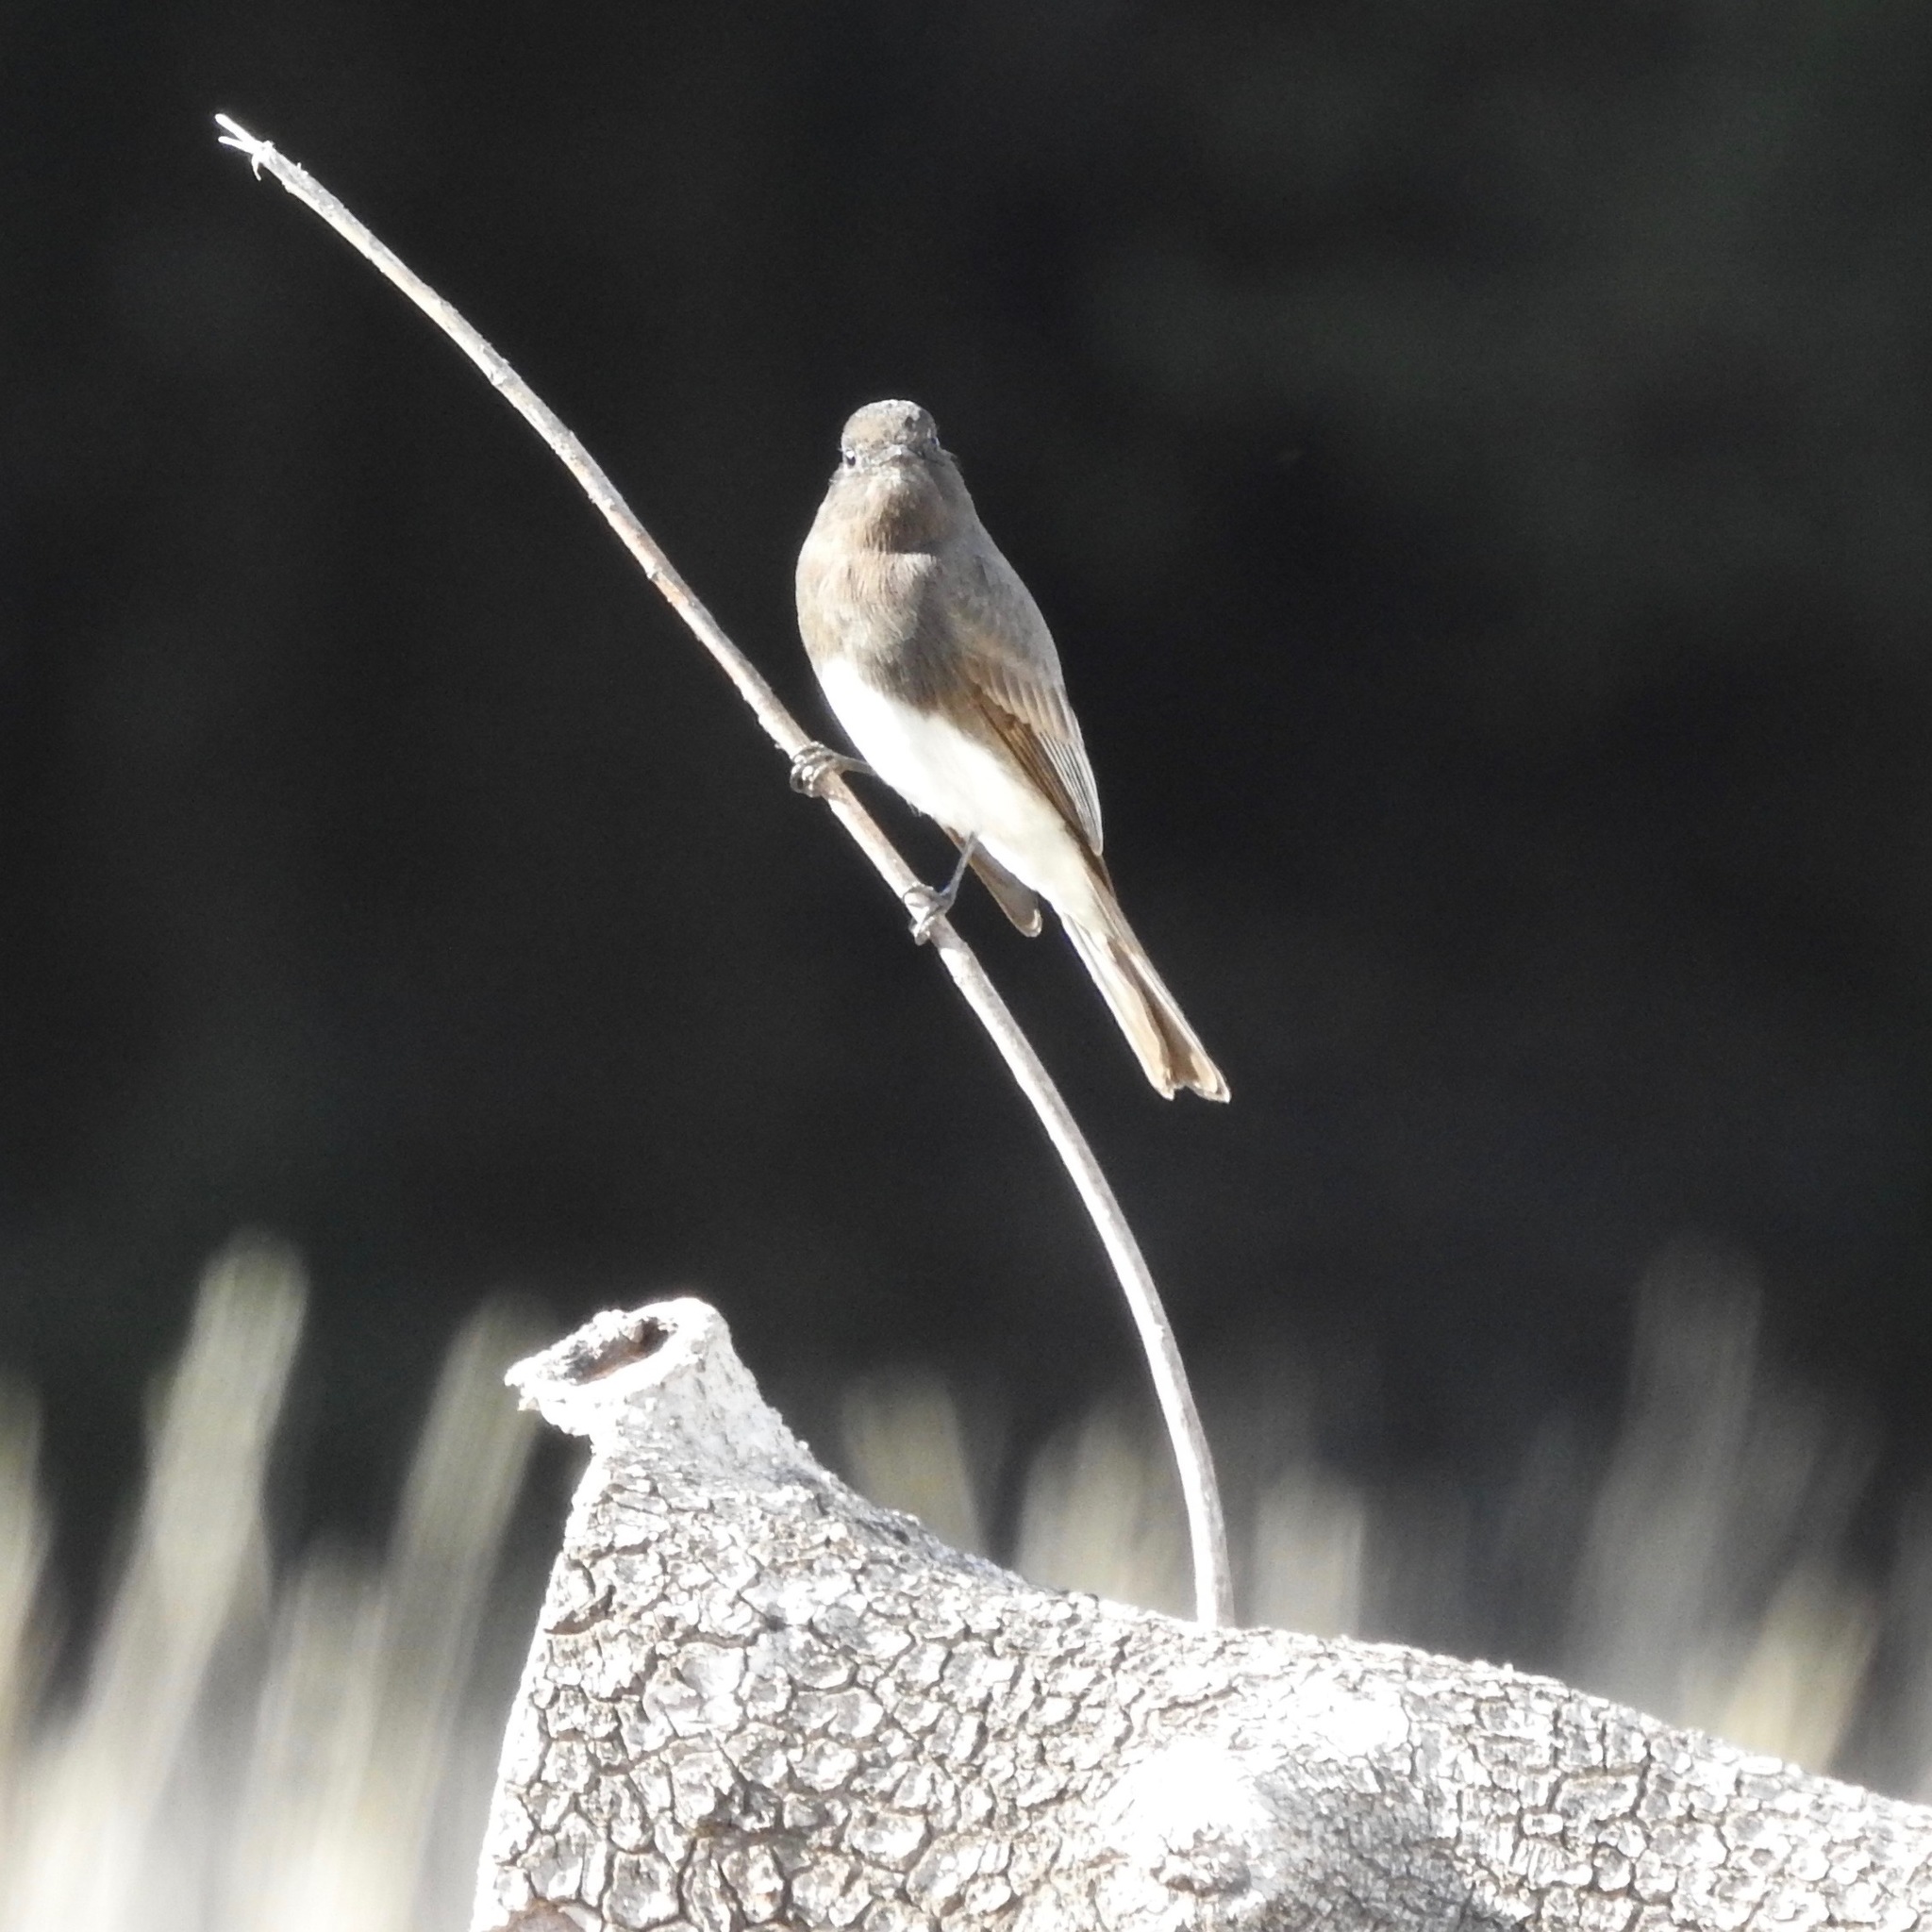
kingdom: Animalia
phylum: Chordata
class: Aves
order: Passeriformes
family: Tyrannidae
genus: Sayornis
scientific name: Sayornis nigricans
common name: Black phoebe
